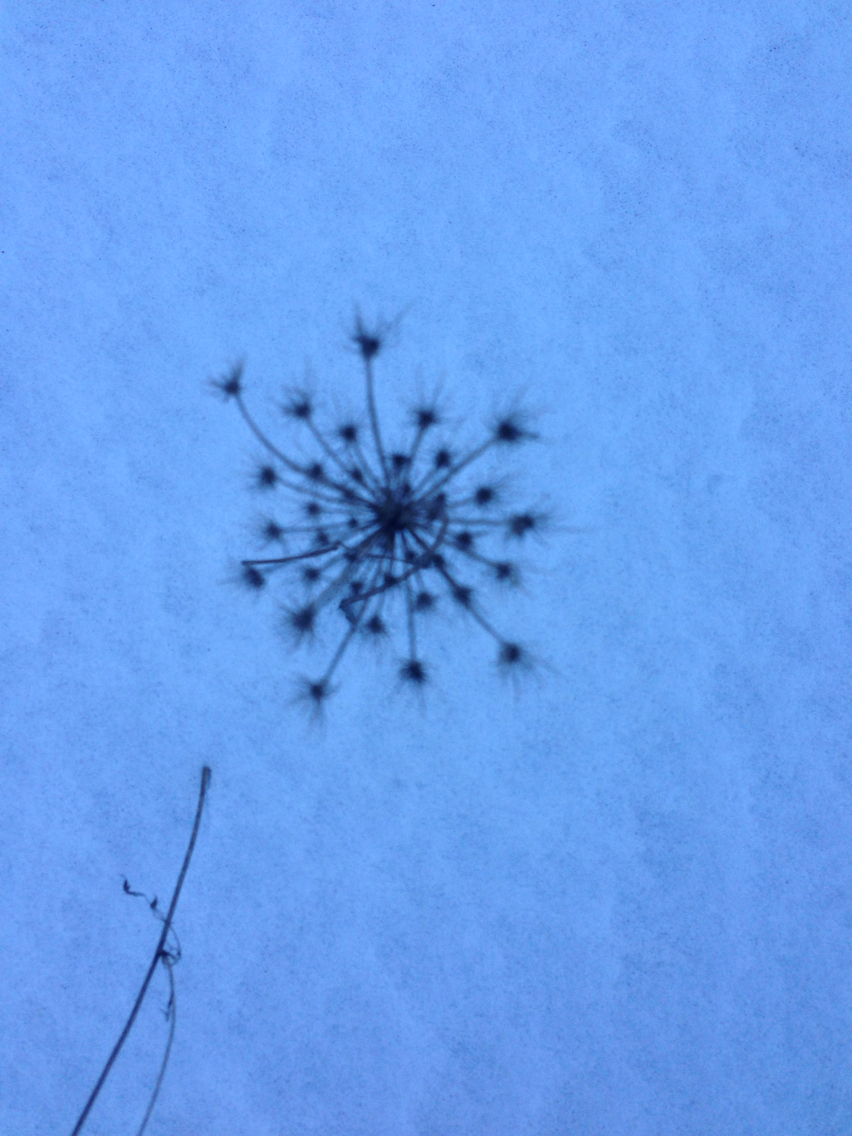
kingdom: Plantae
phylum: Tracheophyta
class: Magnoliopsida
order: Apiales
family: Apiaceae
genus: Daucus
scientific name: Daucus carota
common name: Wild carrot
